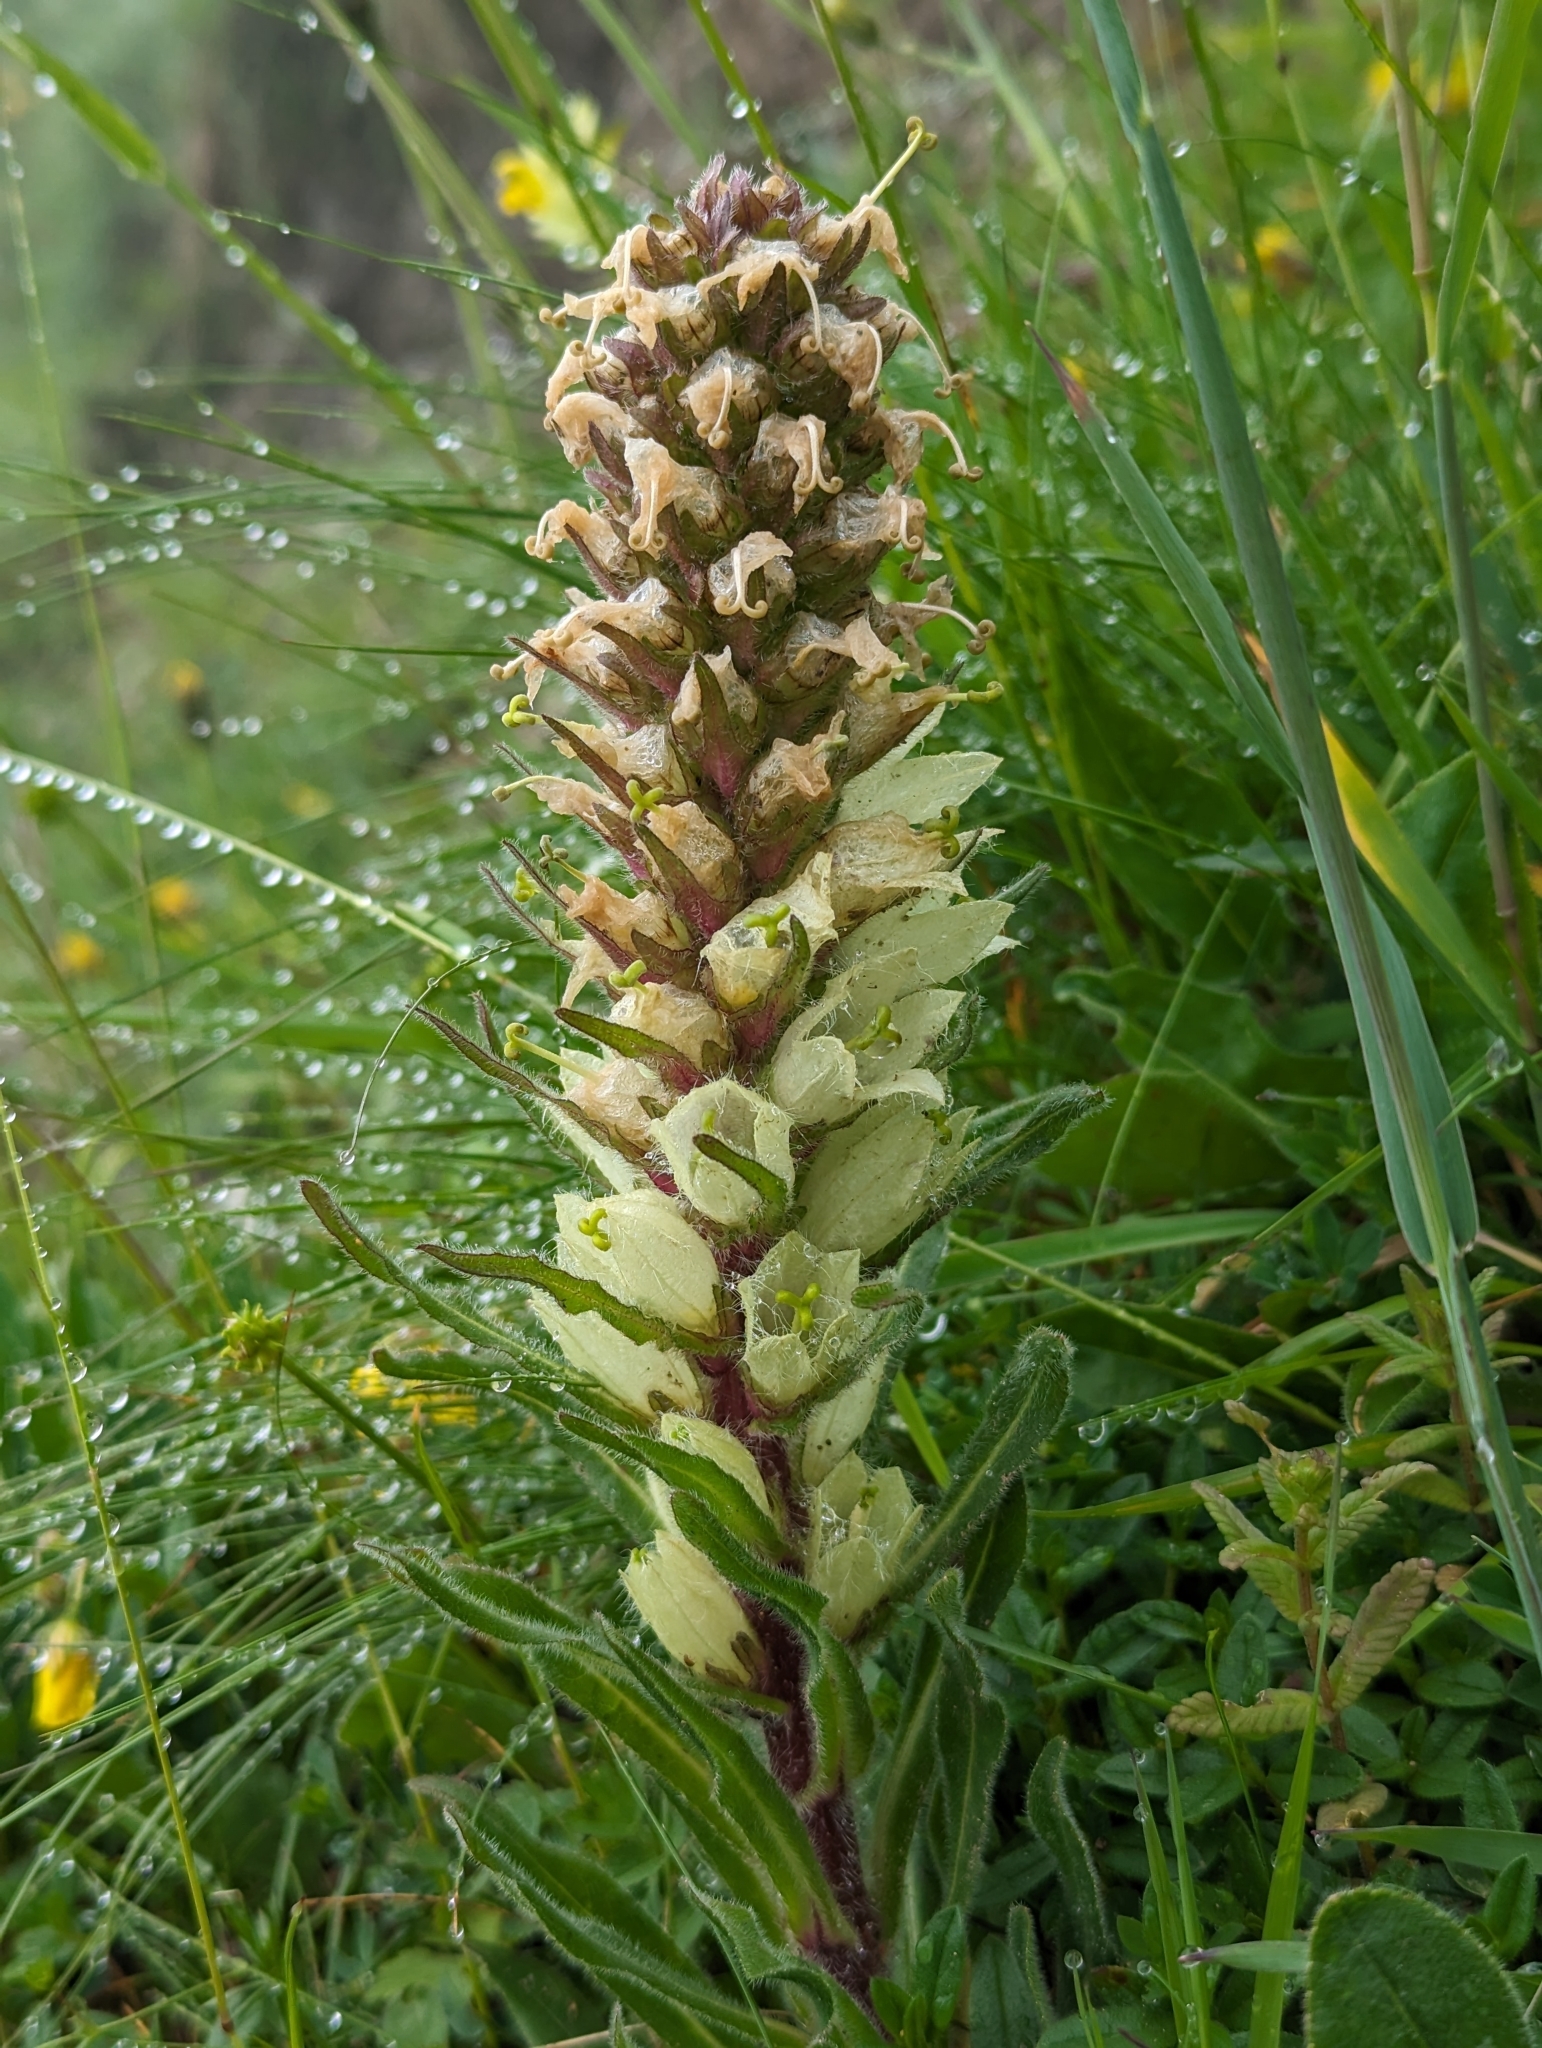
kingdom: Plantae
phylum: Tracheophyta
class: Magnoliopsida
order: Asterales
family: Campanulaceae
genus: Campanula
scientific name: Campanula thyrsoides
